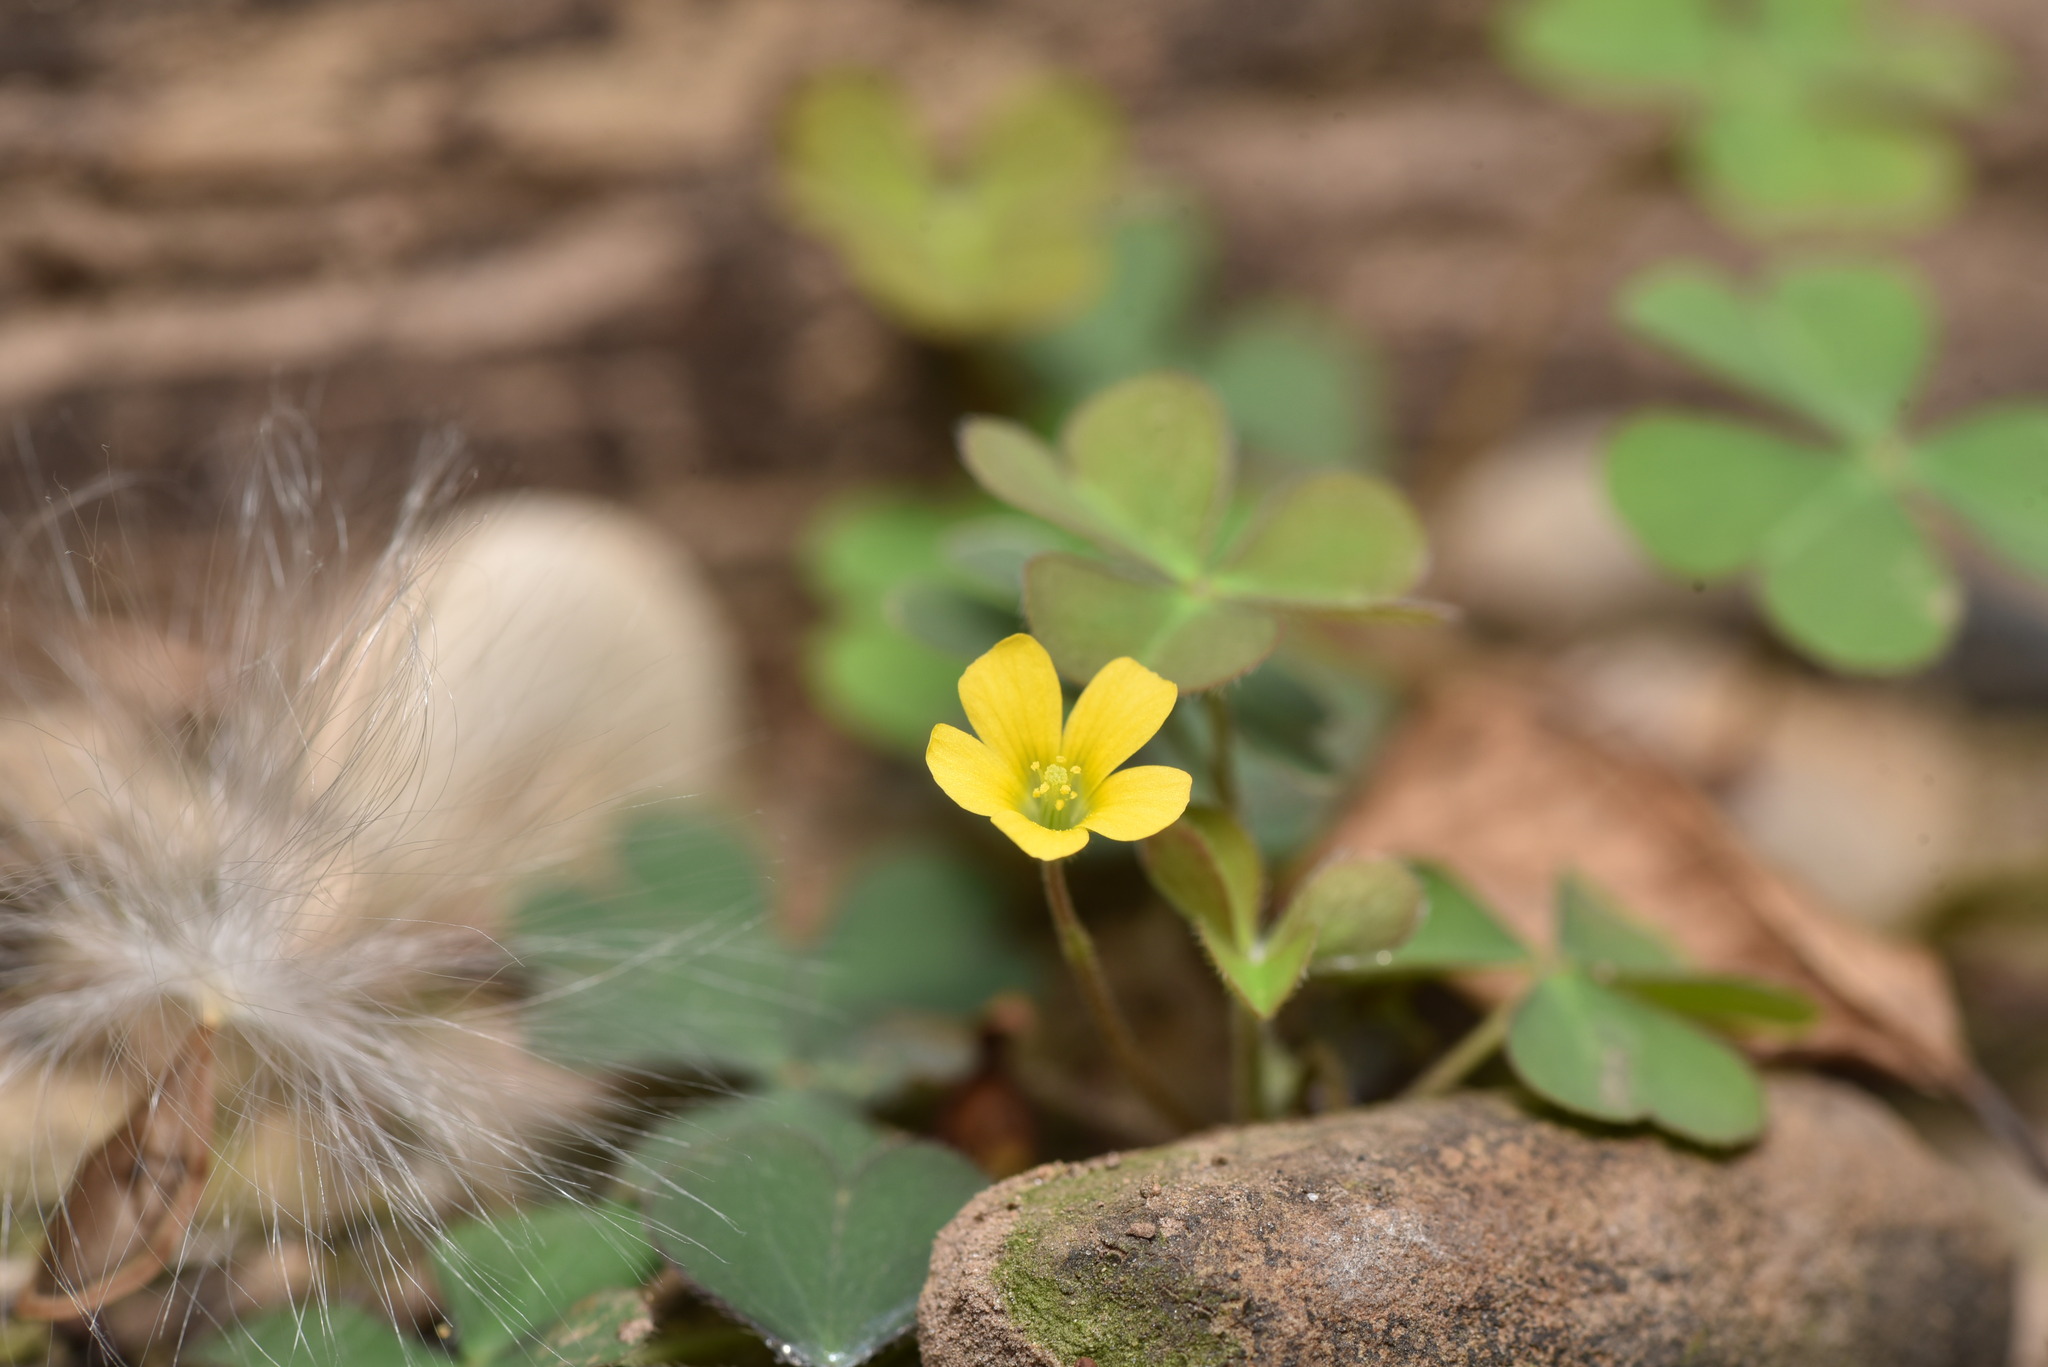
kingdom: Plantae
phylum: Tracheophyta
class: Magnoliopsida
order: Oxalidales
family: Oxalidaceae
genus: Oxalis
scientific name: Oxalis corniculata
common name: Procumbent yellow-sorrel
